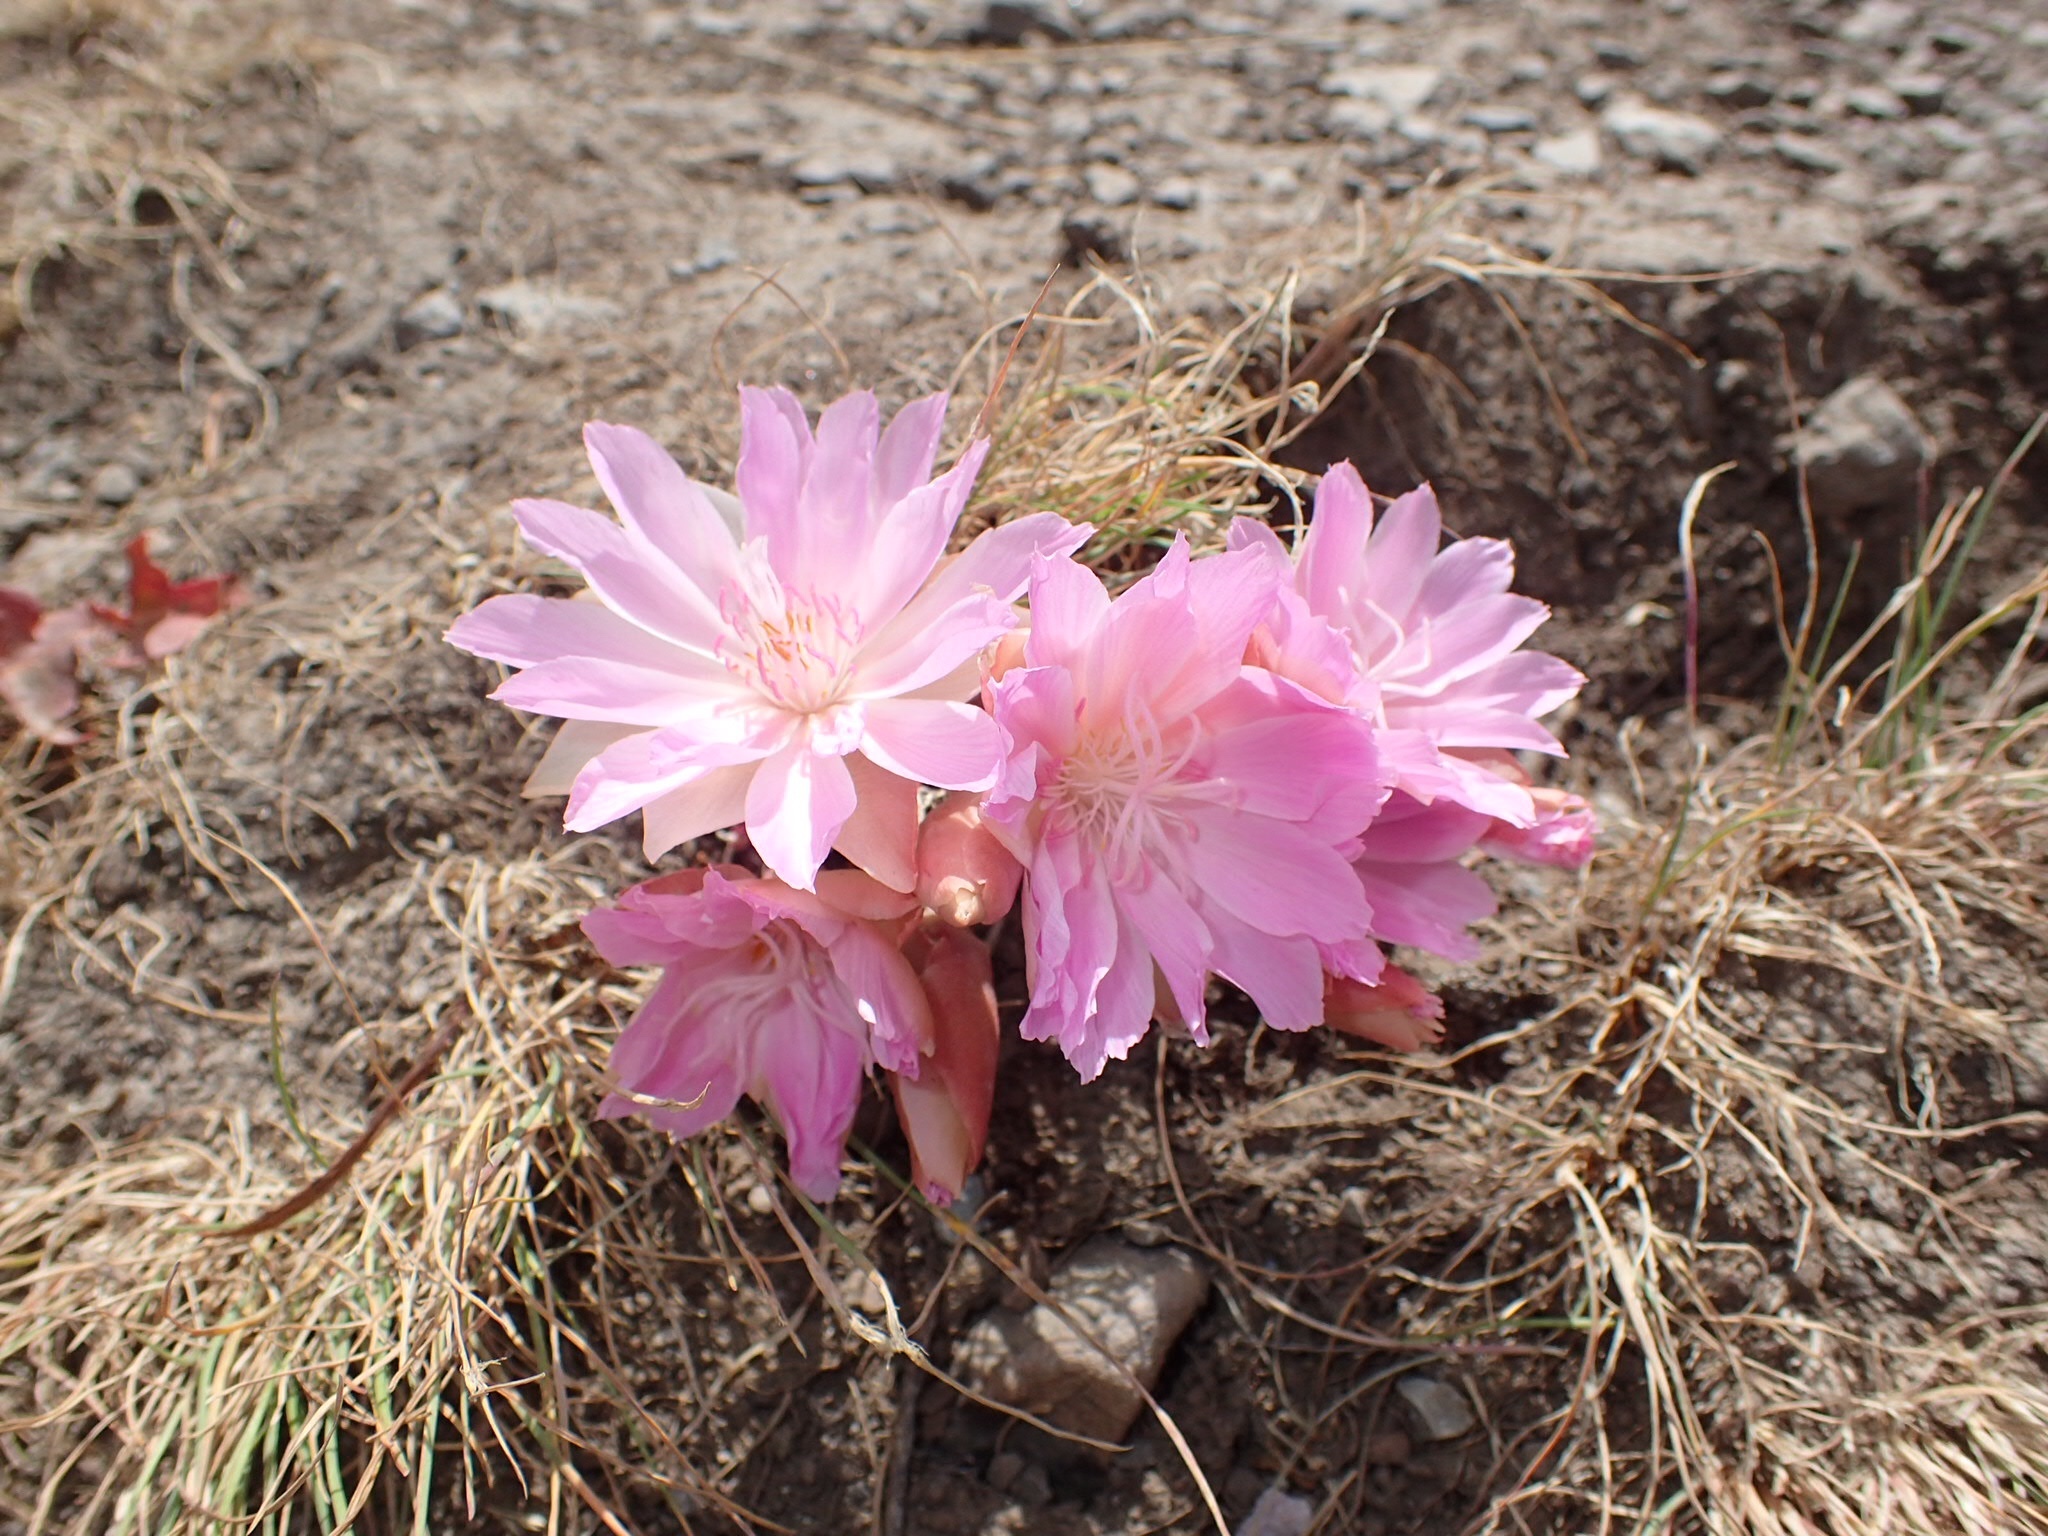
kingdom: Plantae
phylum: Tracheophyta
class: Magnoliopsida
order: Caryophyllales
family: Montiaceae
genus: Lewisia
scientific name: Lewisia rediviva
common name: Bitter-root
